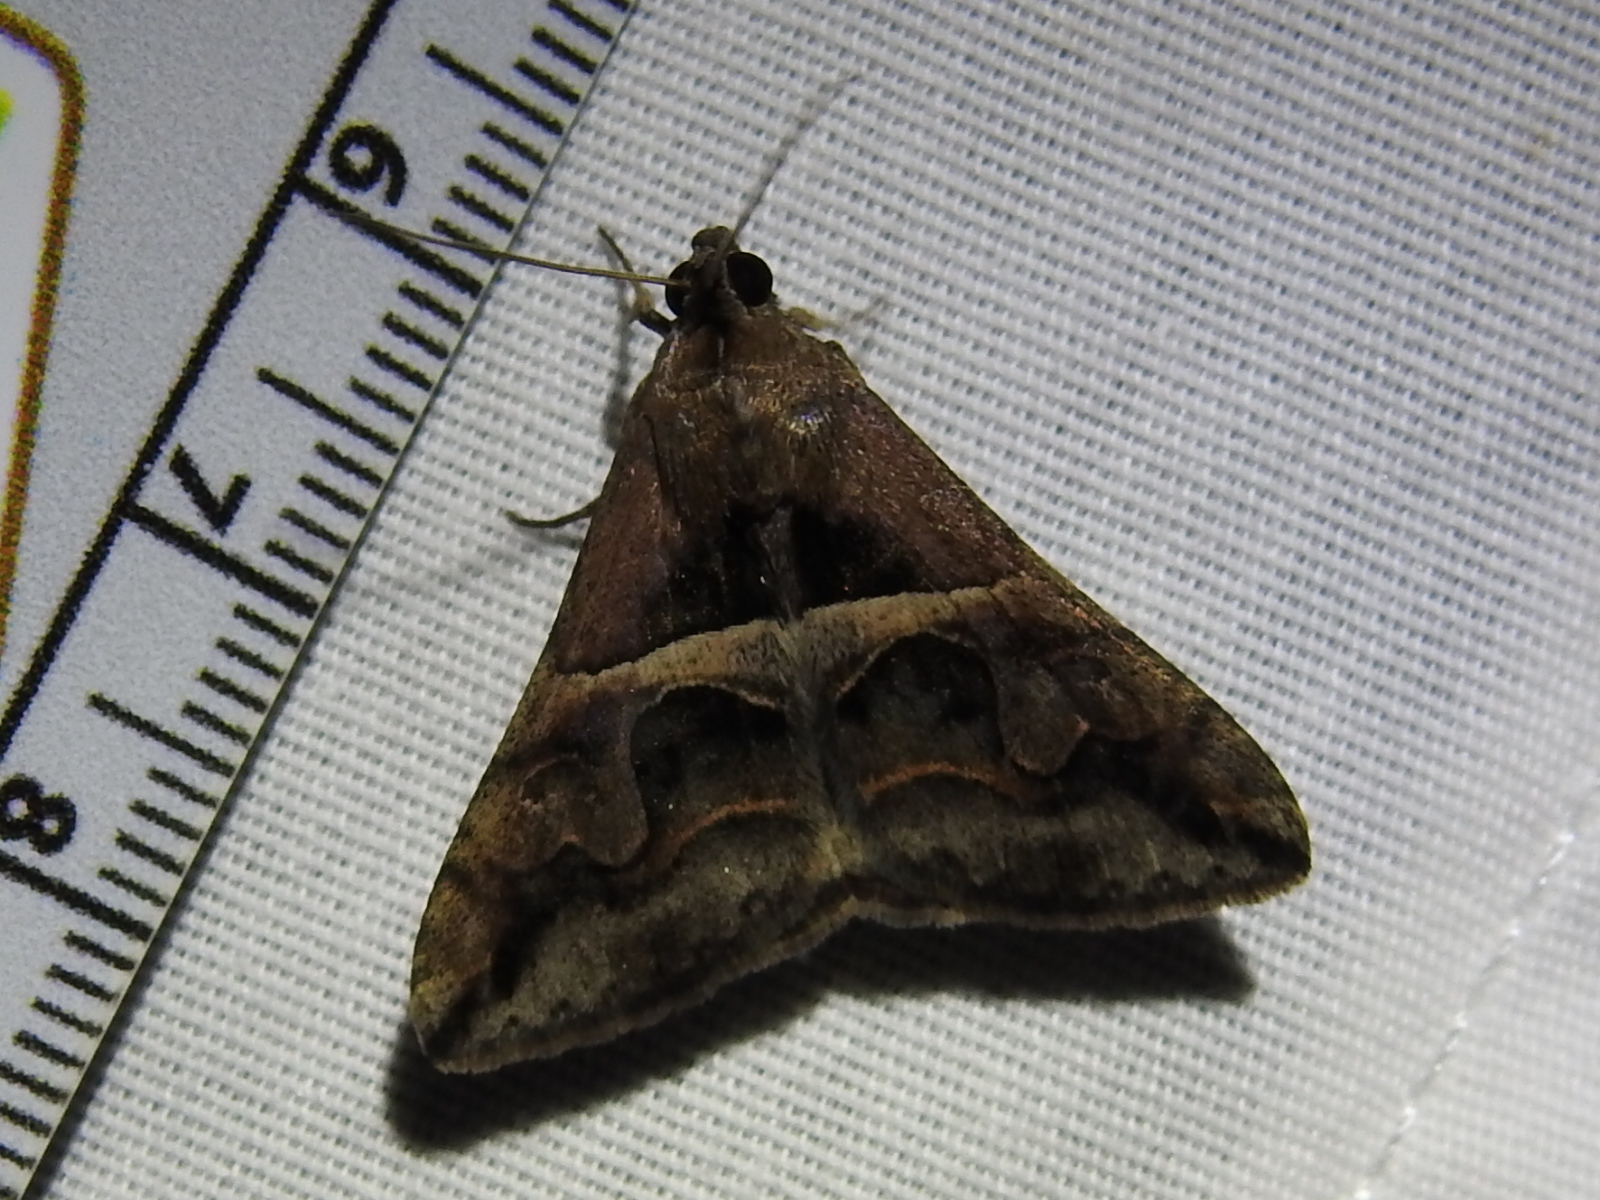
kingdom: Animalia
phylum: Arthropoda
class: Insecta
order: Lepidoptera
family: Erebidae
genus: Melipotis
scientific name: Melipotis cellaris
